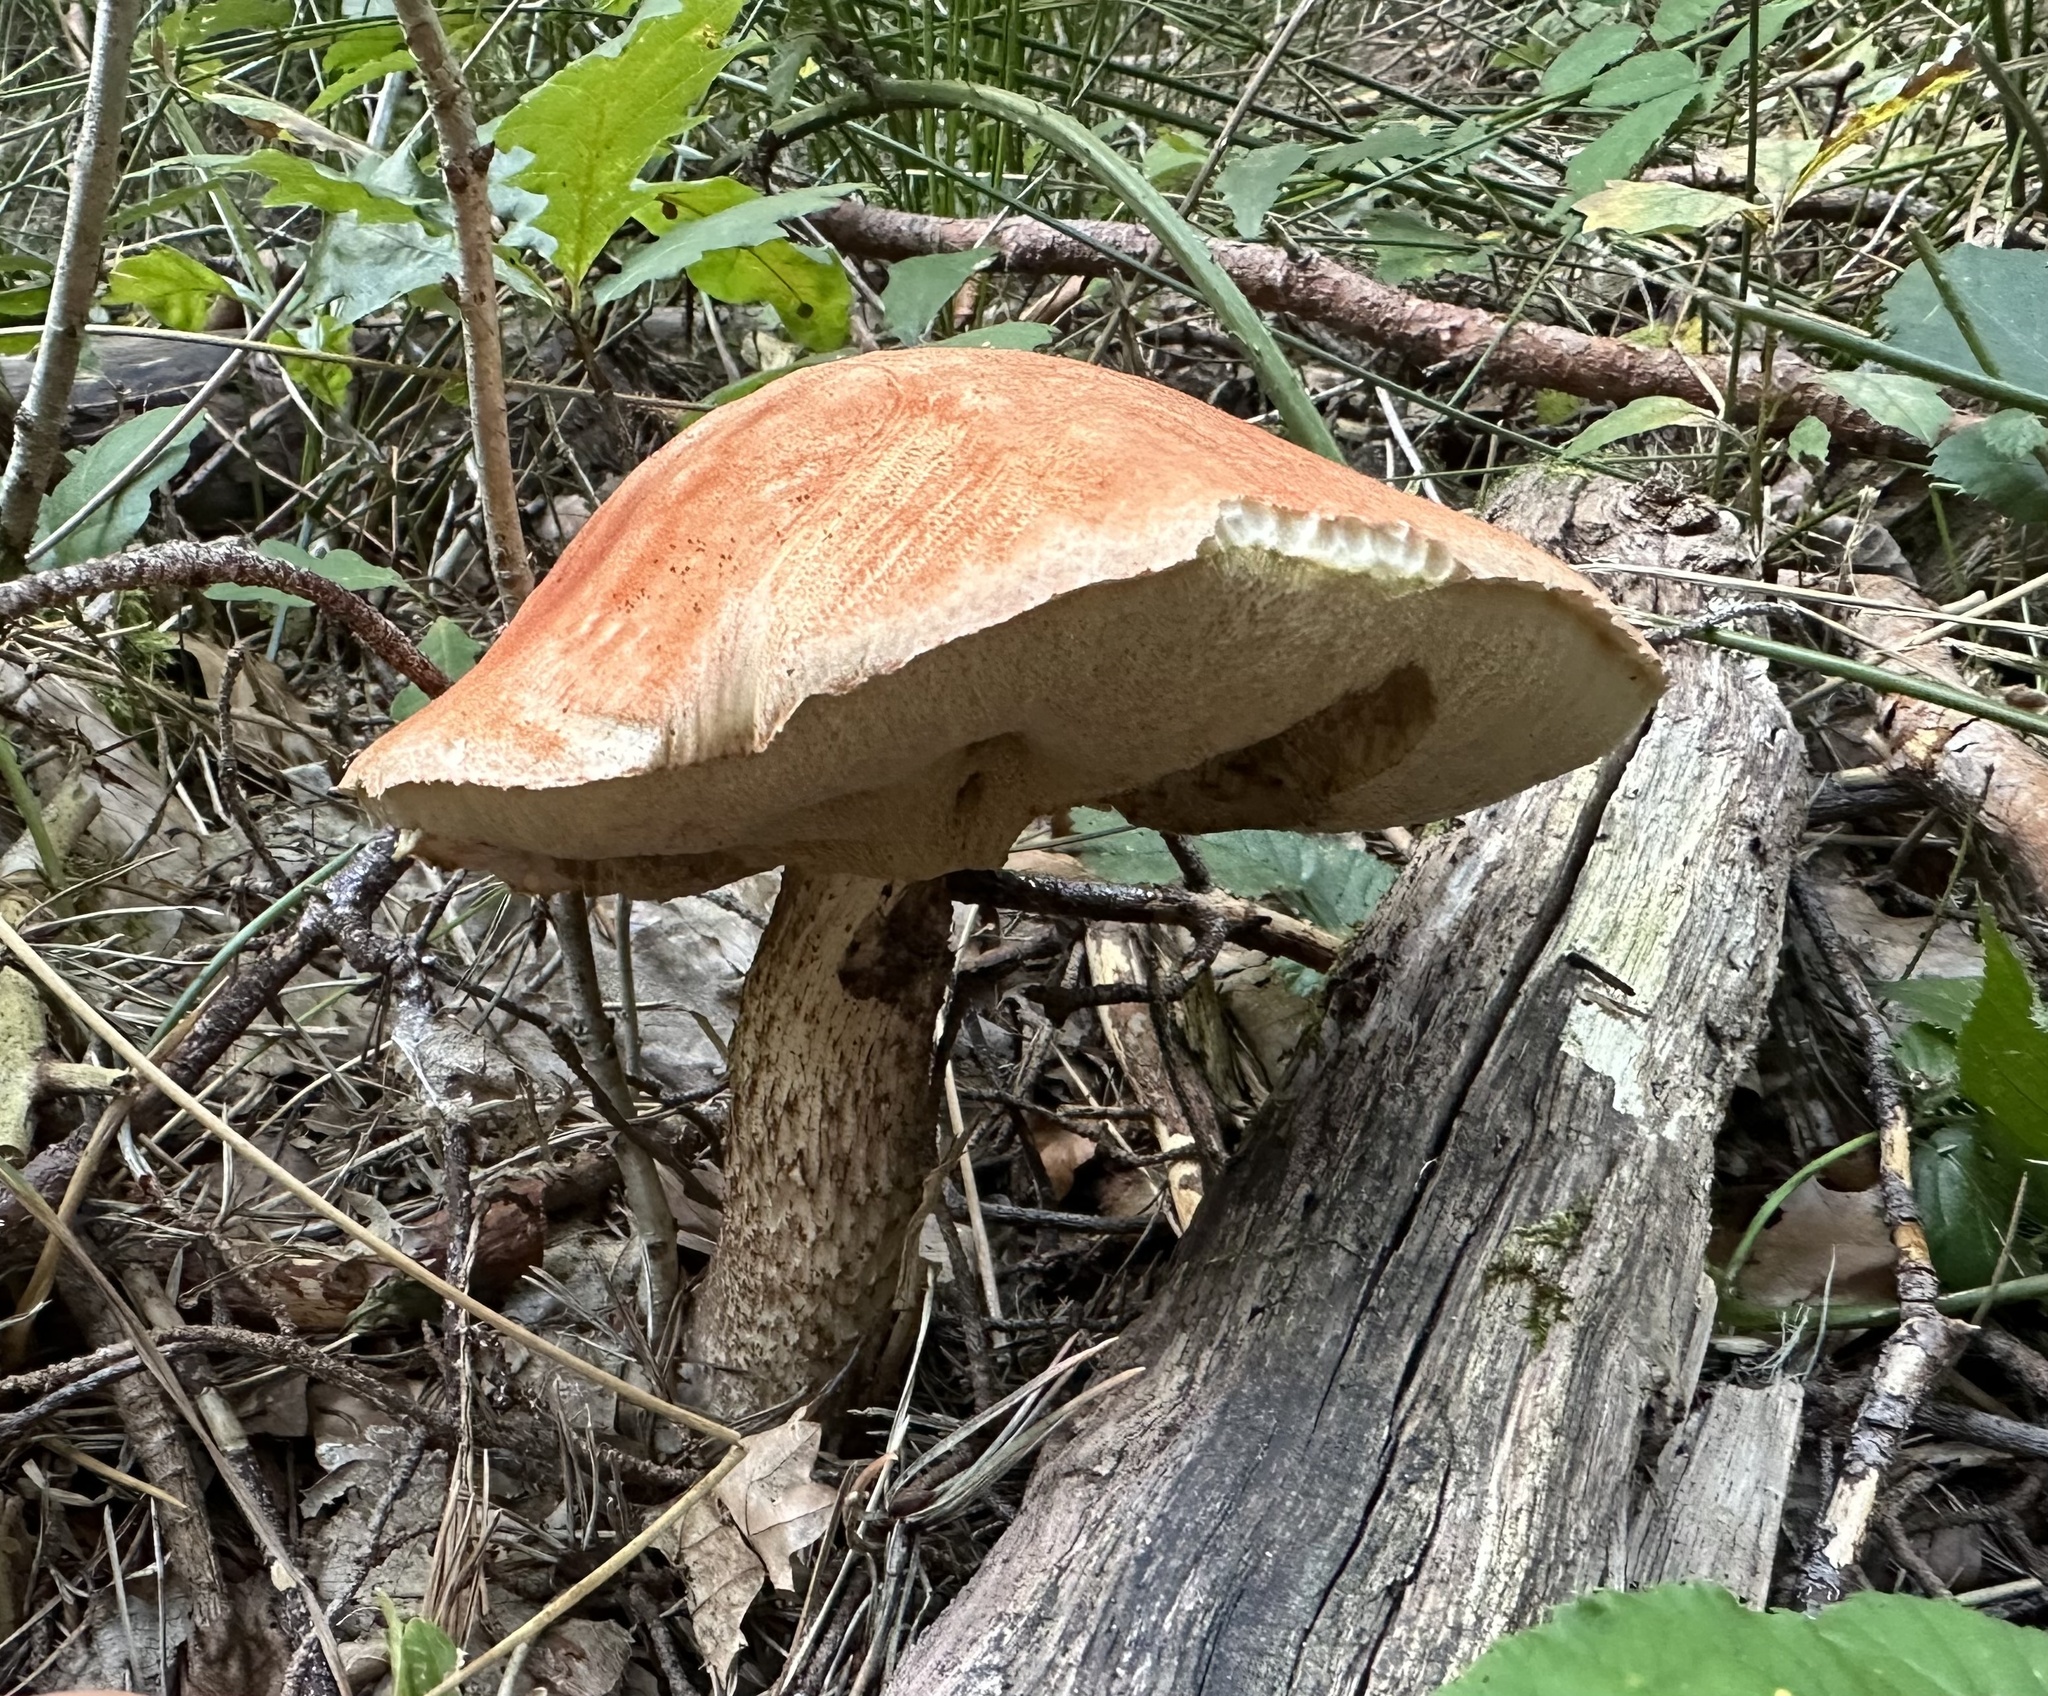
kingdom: Fungi
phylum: Basidiomycota
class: Agaricomycetes
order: Boletales
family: Boletaceae
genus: Leccinum
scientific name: Leccinum aurantiacum
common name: Orange bolete
